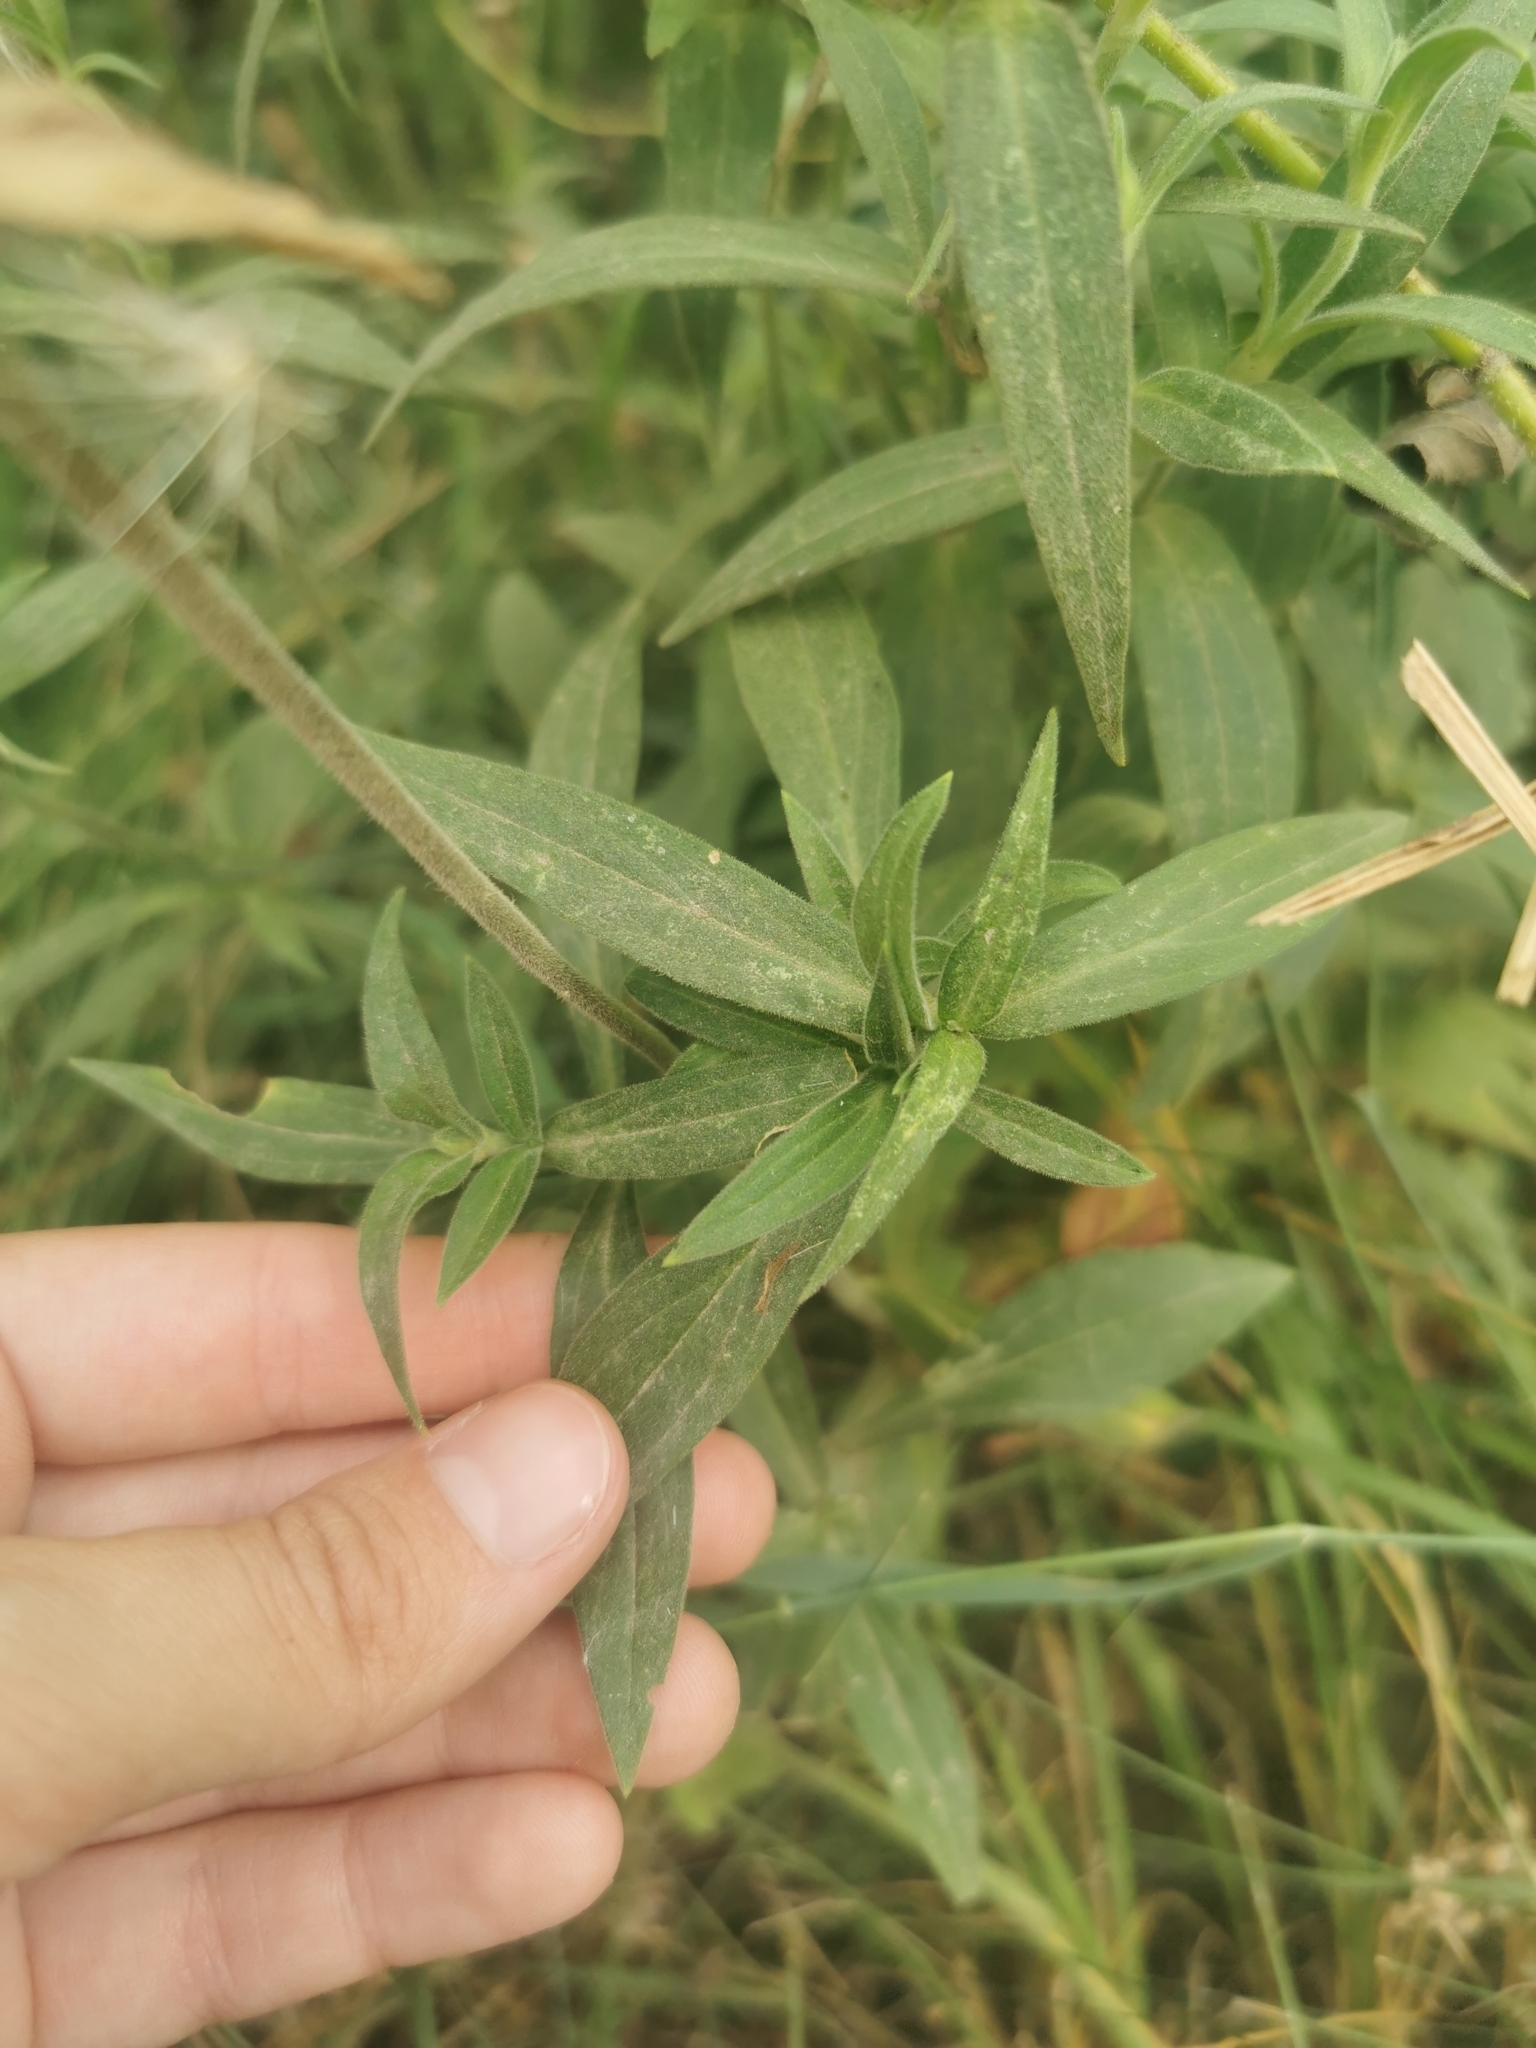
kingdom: Plantae
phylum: Tracheophyta
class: Magnoliopsida
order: Caryophyllales
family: Caryophyllaceae
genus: Silene
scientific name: Silene latifolia
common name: White campion
